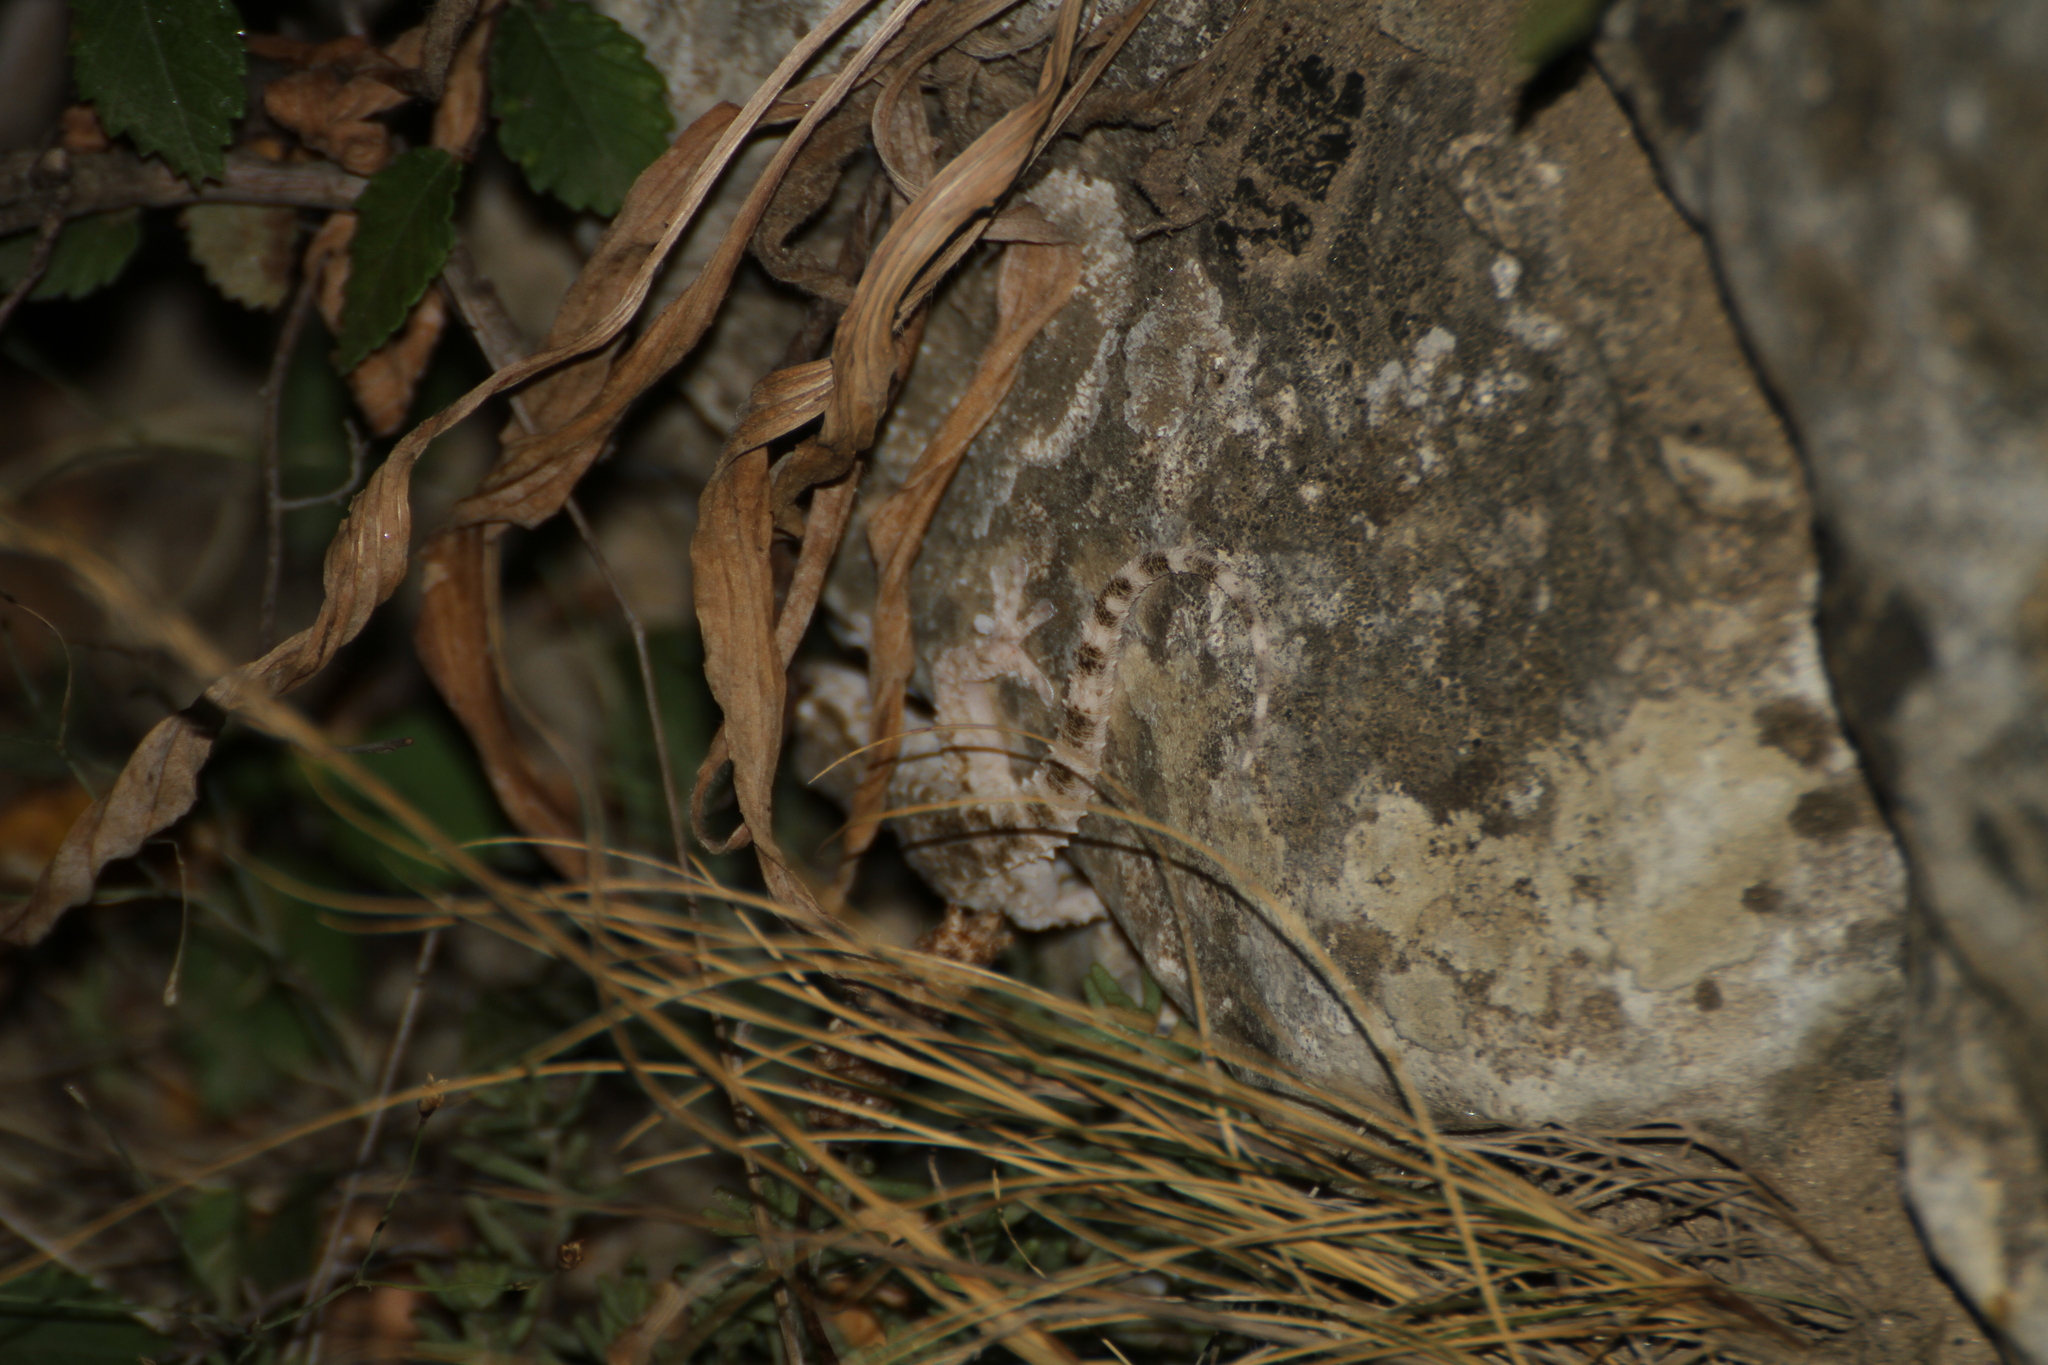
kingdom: Animalia
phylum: Chordata
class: Squamata
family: Phyllodactylidae
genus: Tarentola
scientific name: Tarentola mauritanica
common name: Moorish gecko
